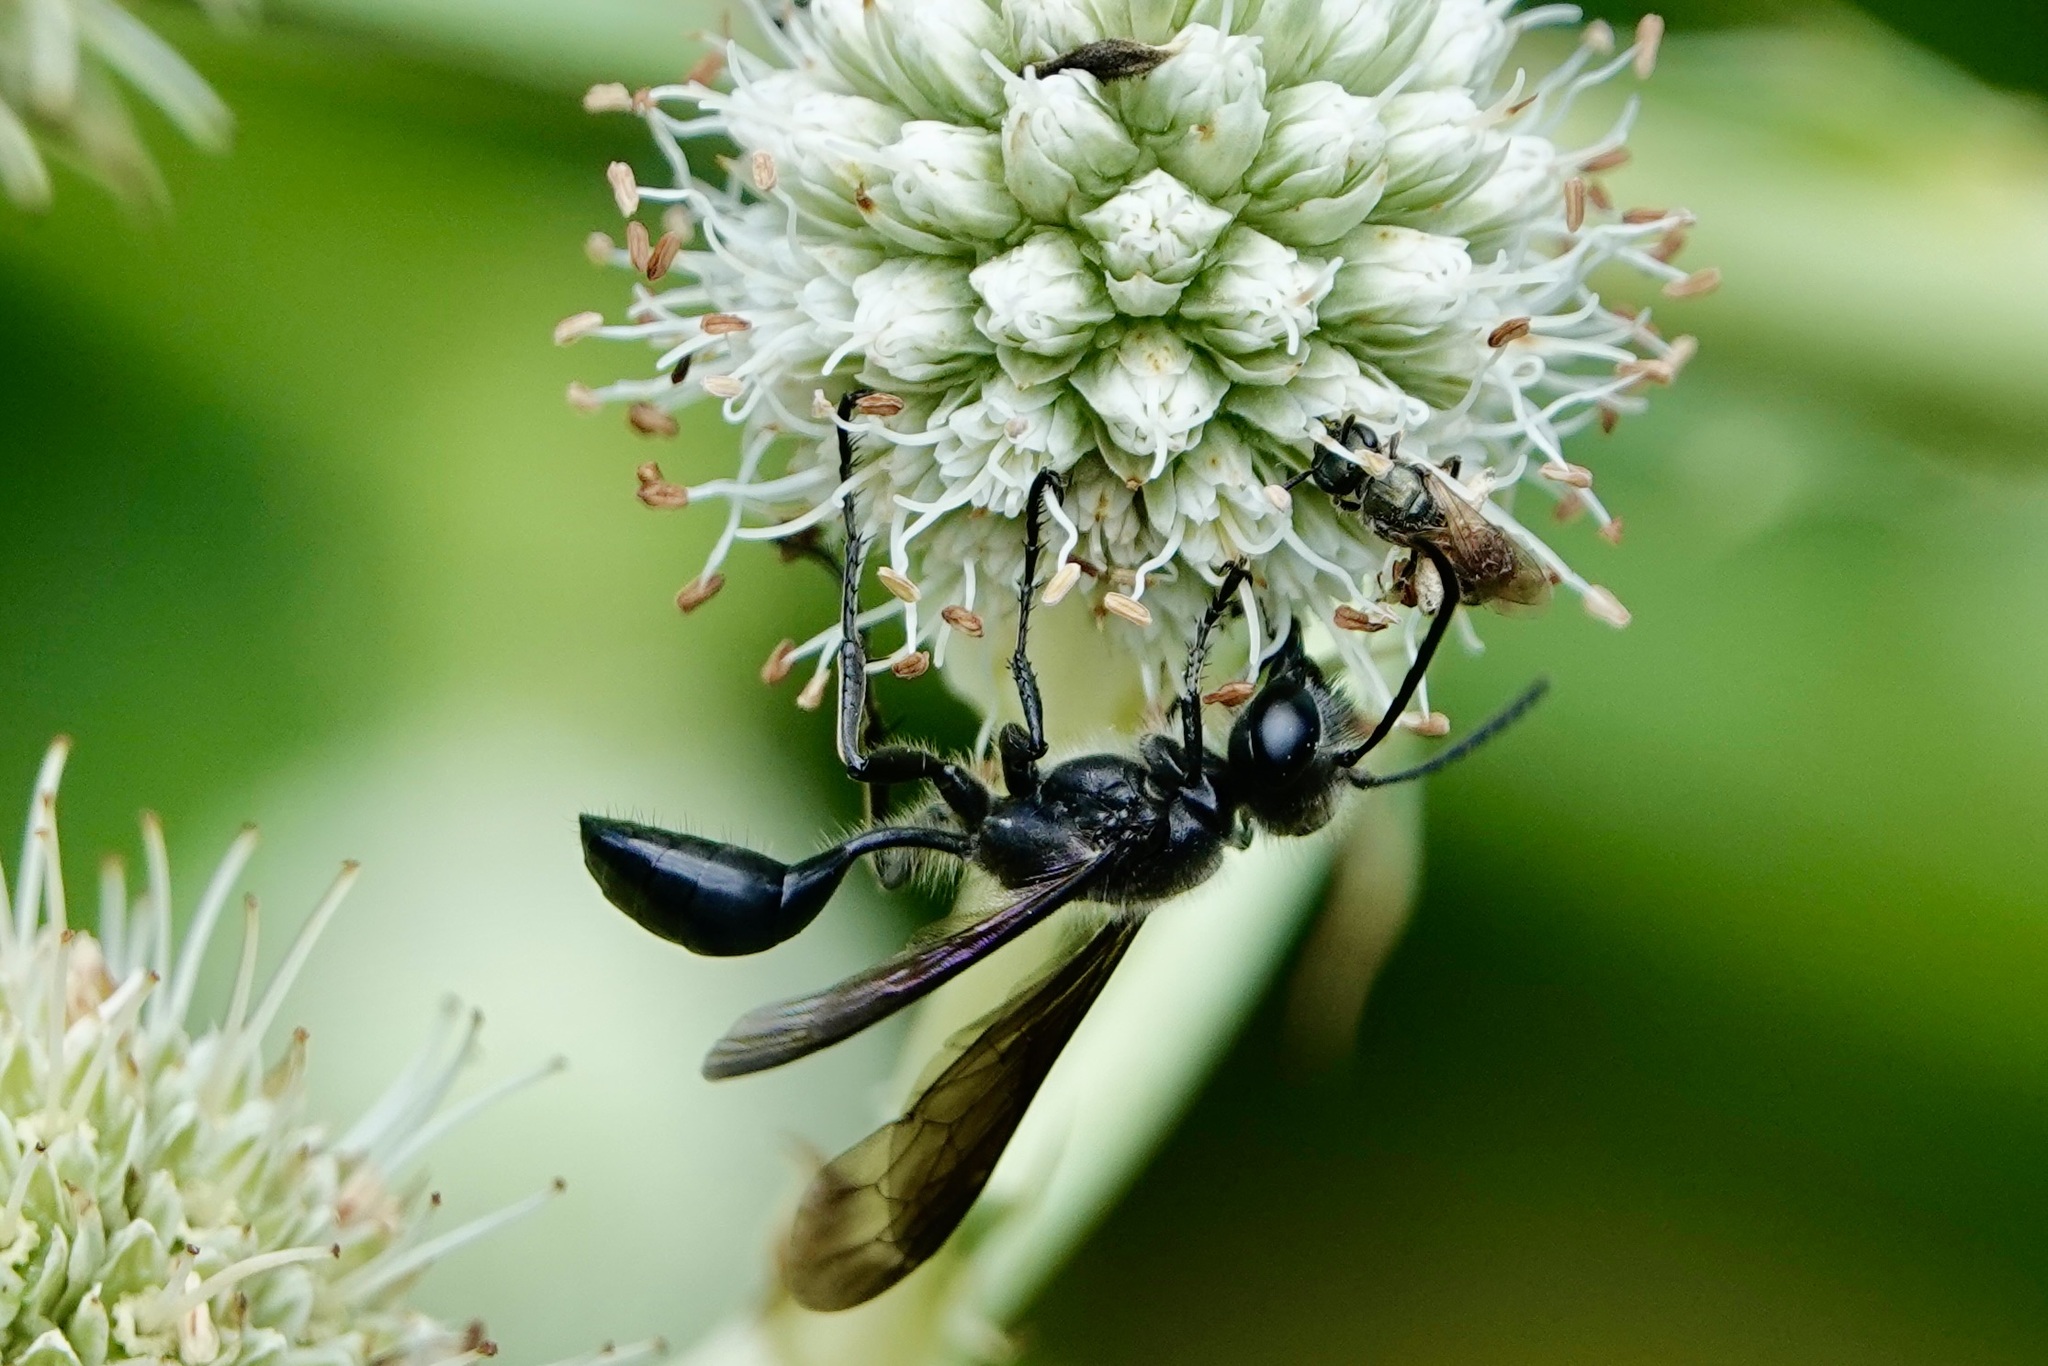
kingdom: Animalia
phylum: Arthropoda
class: Insecta
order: Hymenoptera
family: Sphecidae
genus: Isodontia
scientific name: Isodontia mexicana
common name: Mud dauber
